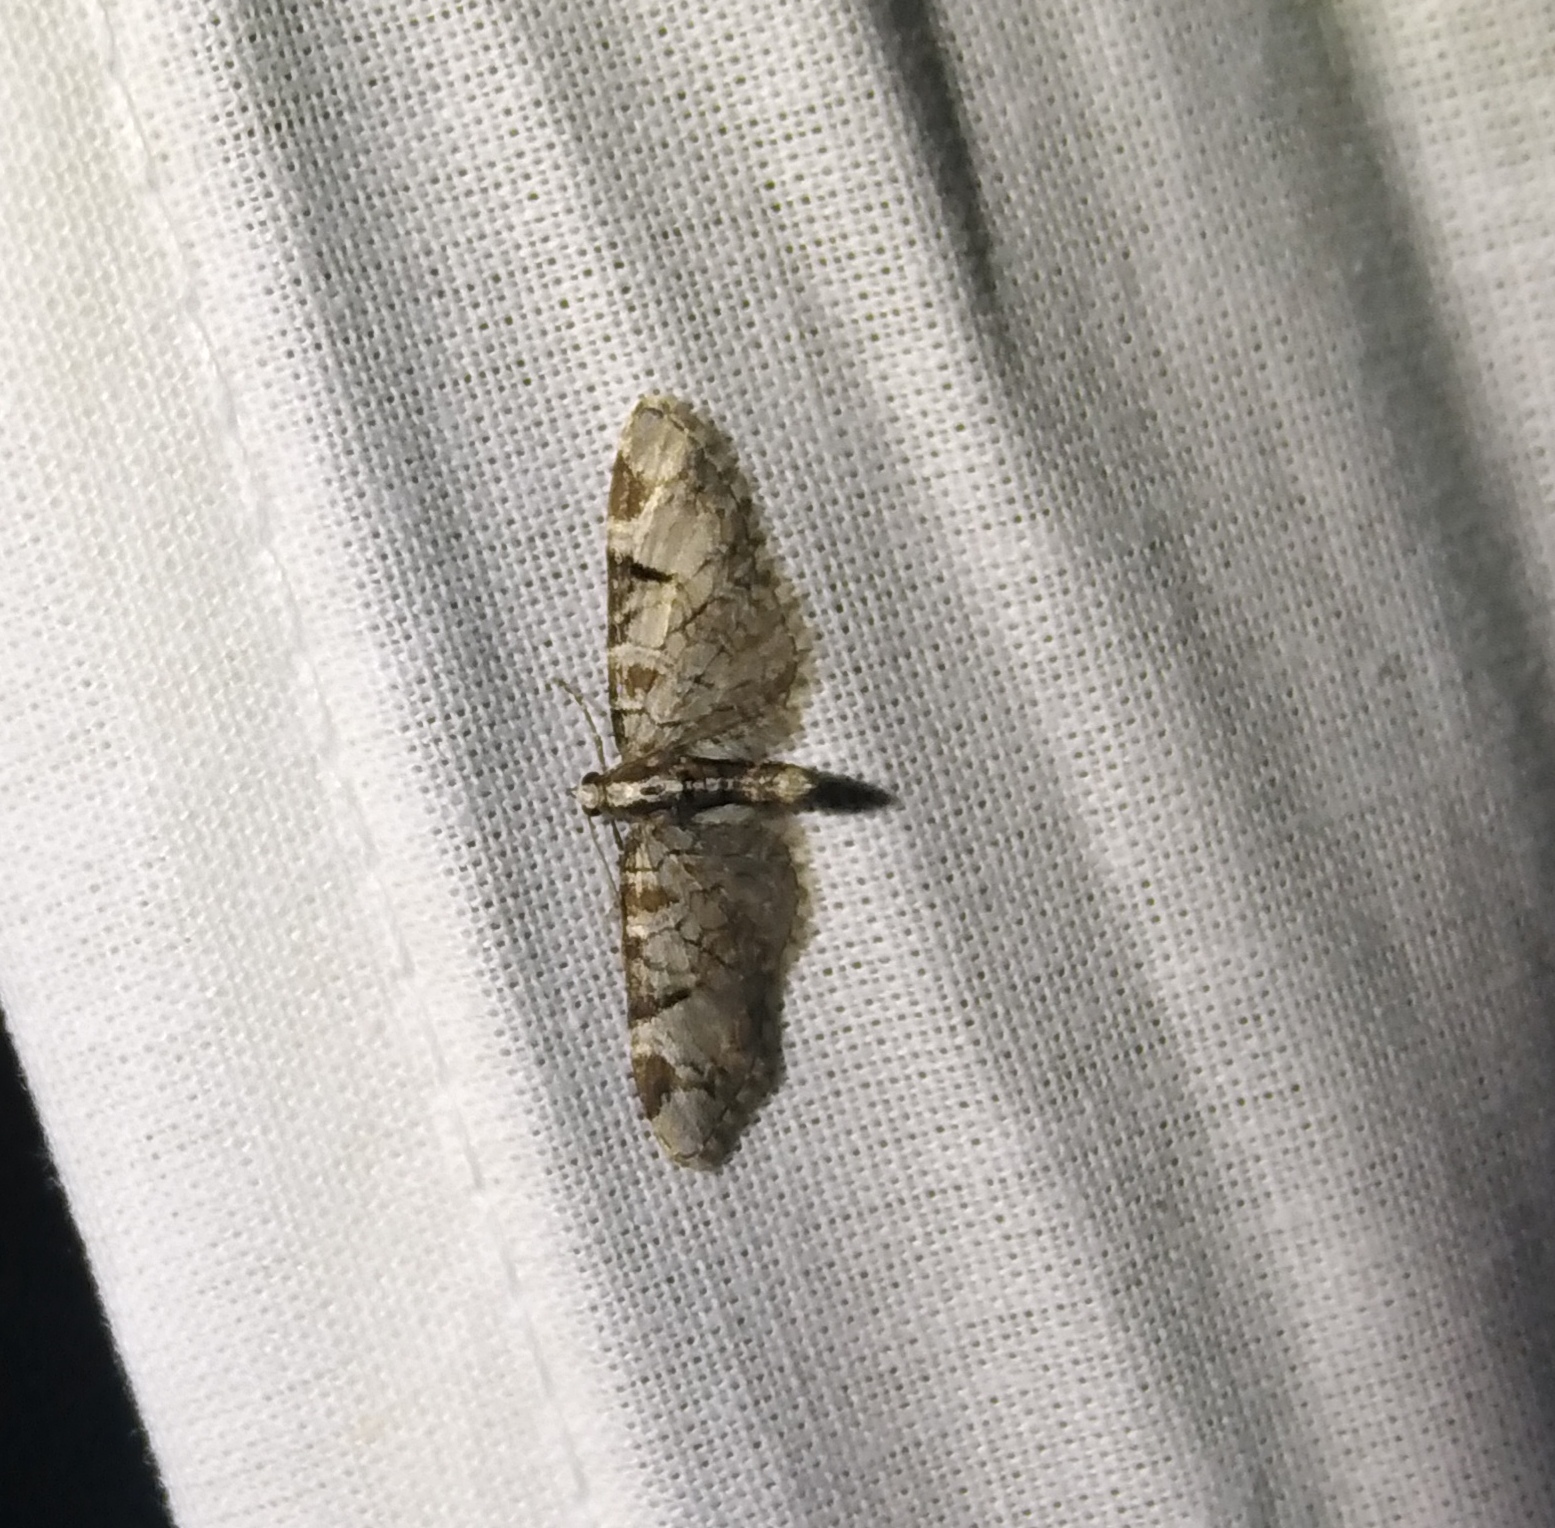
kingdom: Animalia
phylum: Arthropoda
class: Insecta
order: Lepidoptera
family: Geometridae
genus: Eupithecia
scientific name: Eupithecia insigniata
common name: Pinion-spotted pug
